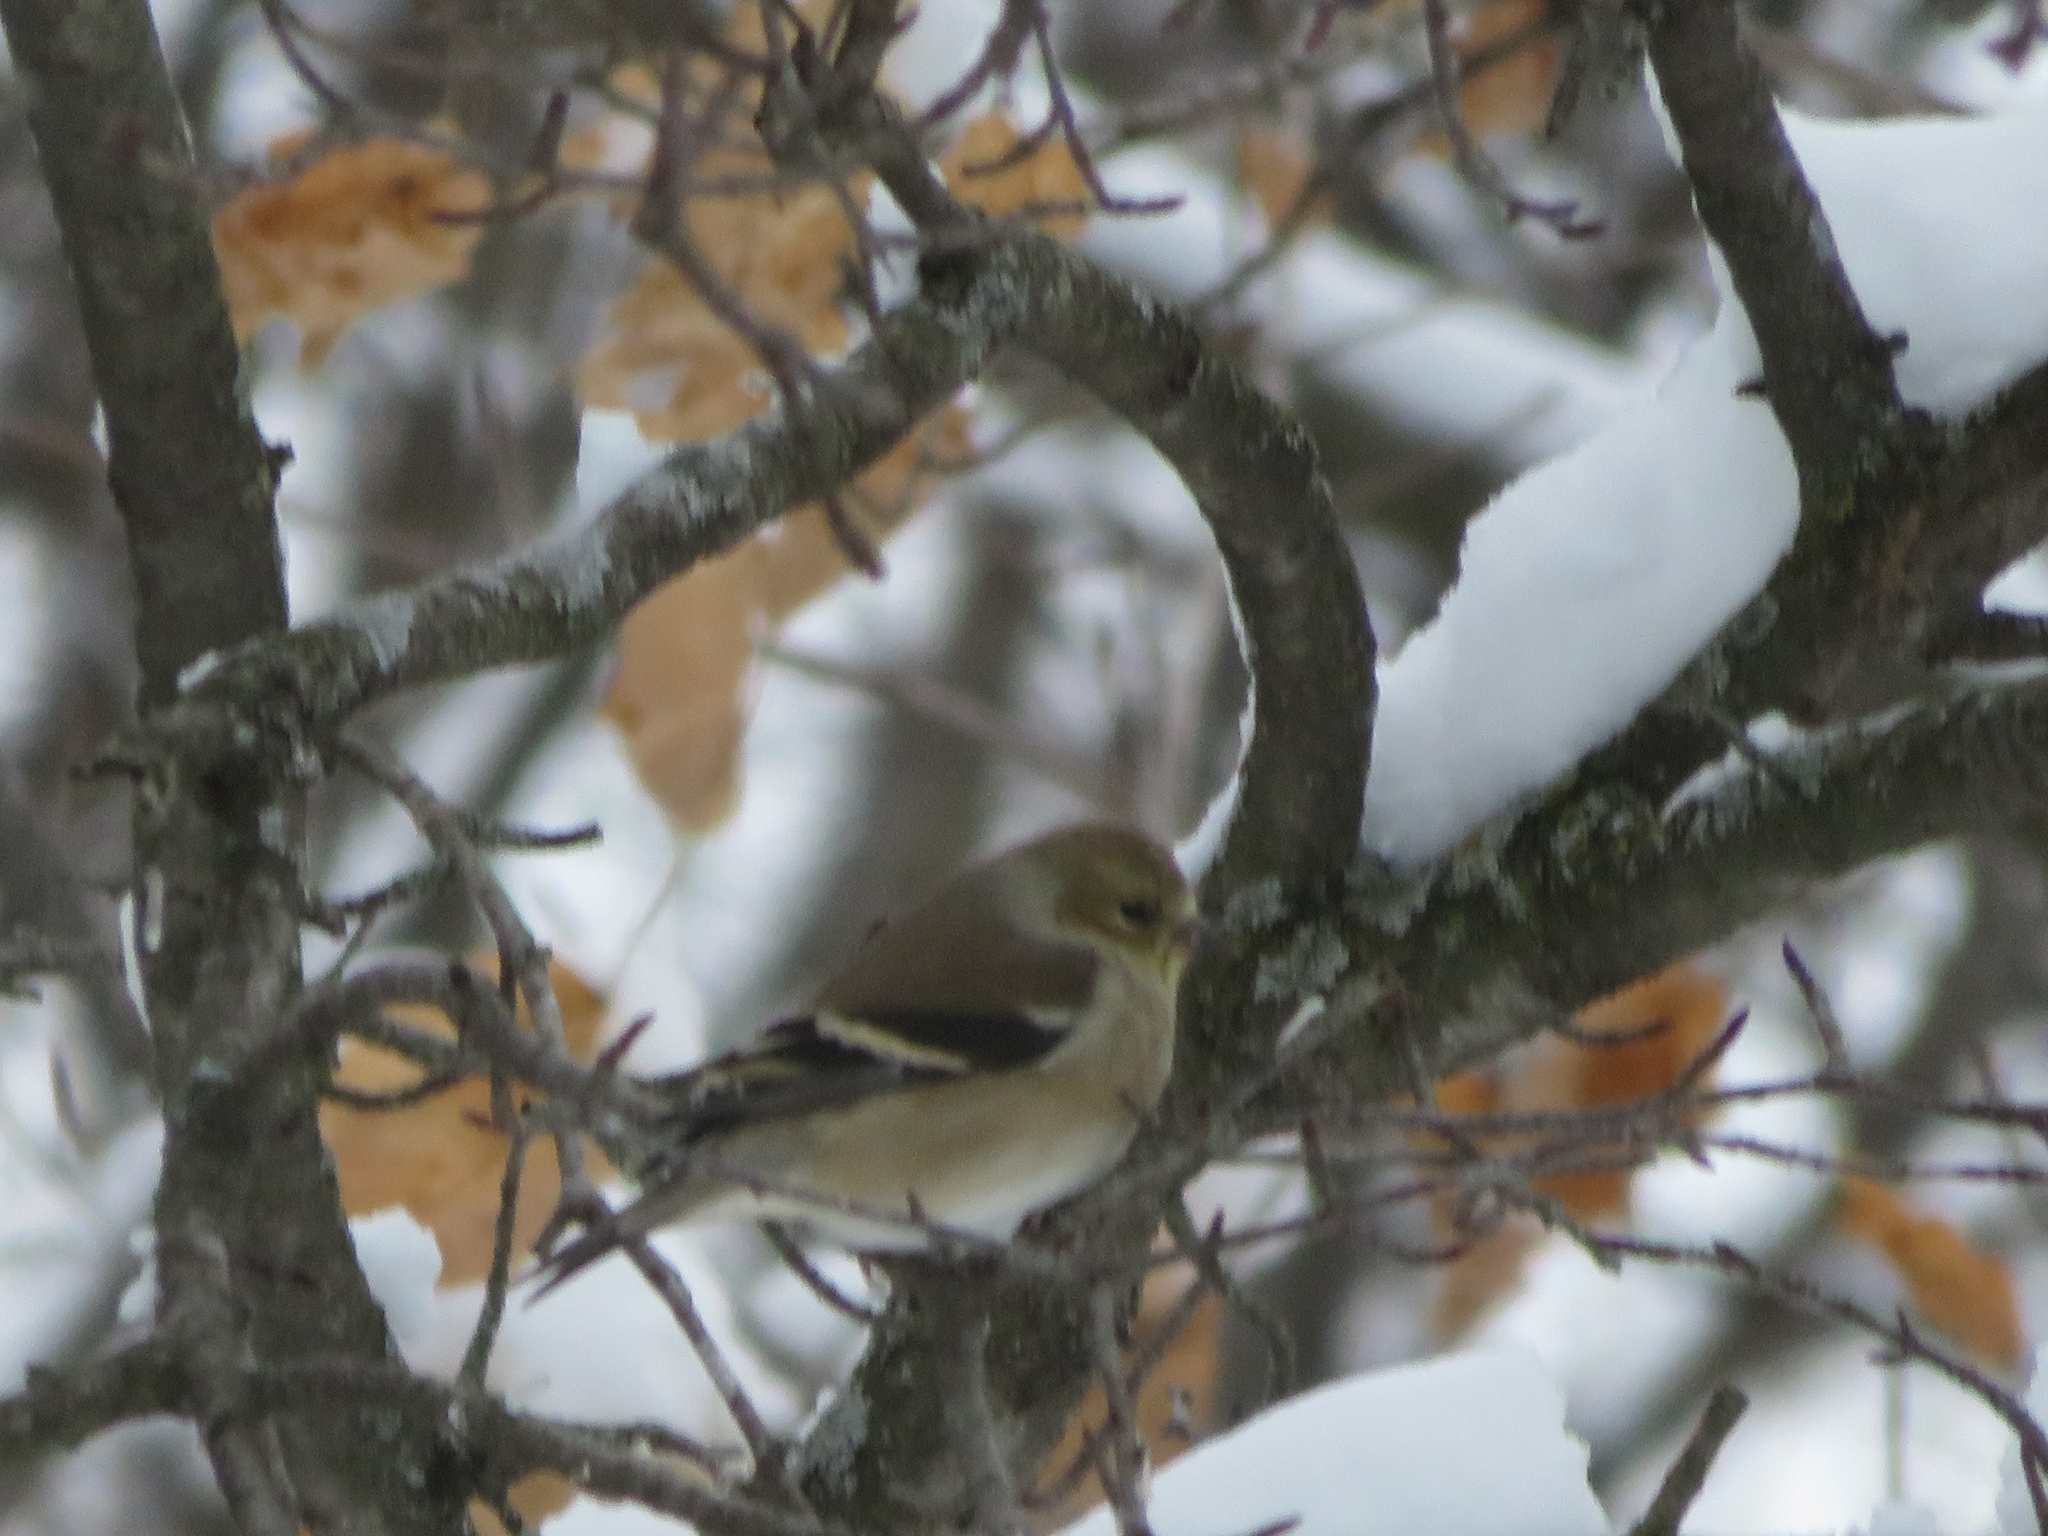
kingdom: Animalia
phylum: Chordata
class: Aves
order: Passeriformes
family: Fringillidae
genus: Spinus
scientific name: Spinus tristis
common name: American goldfinch
